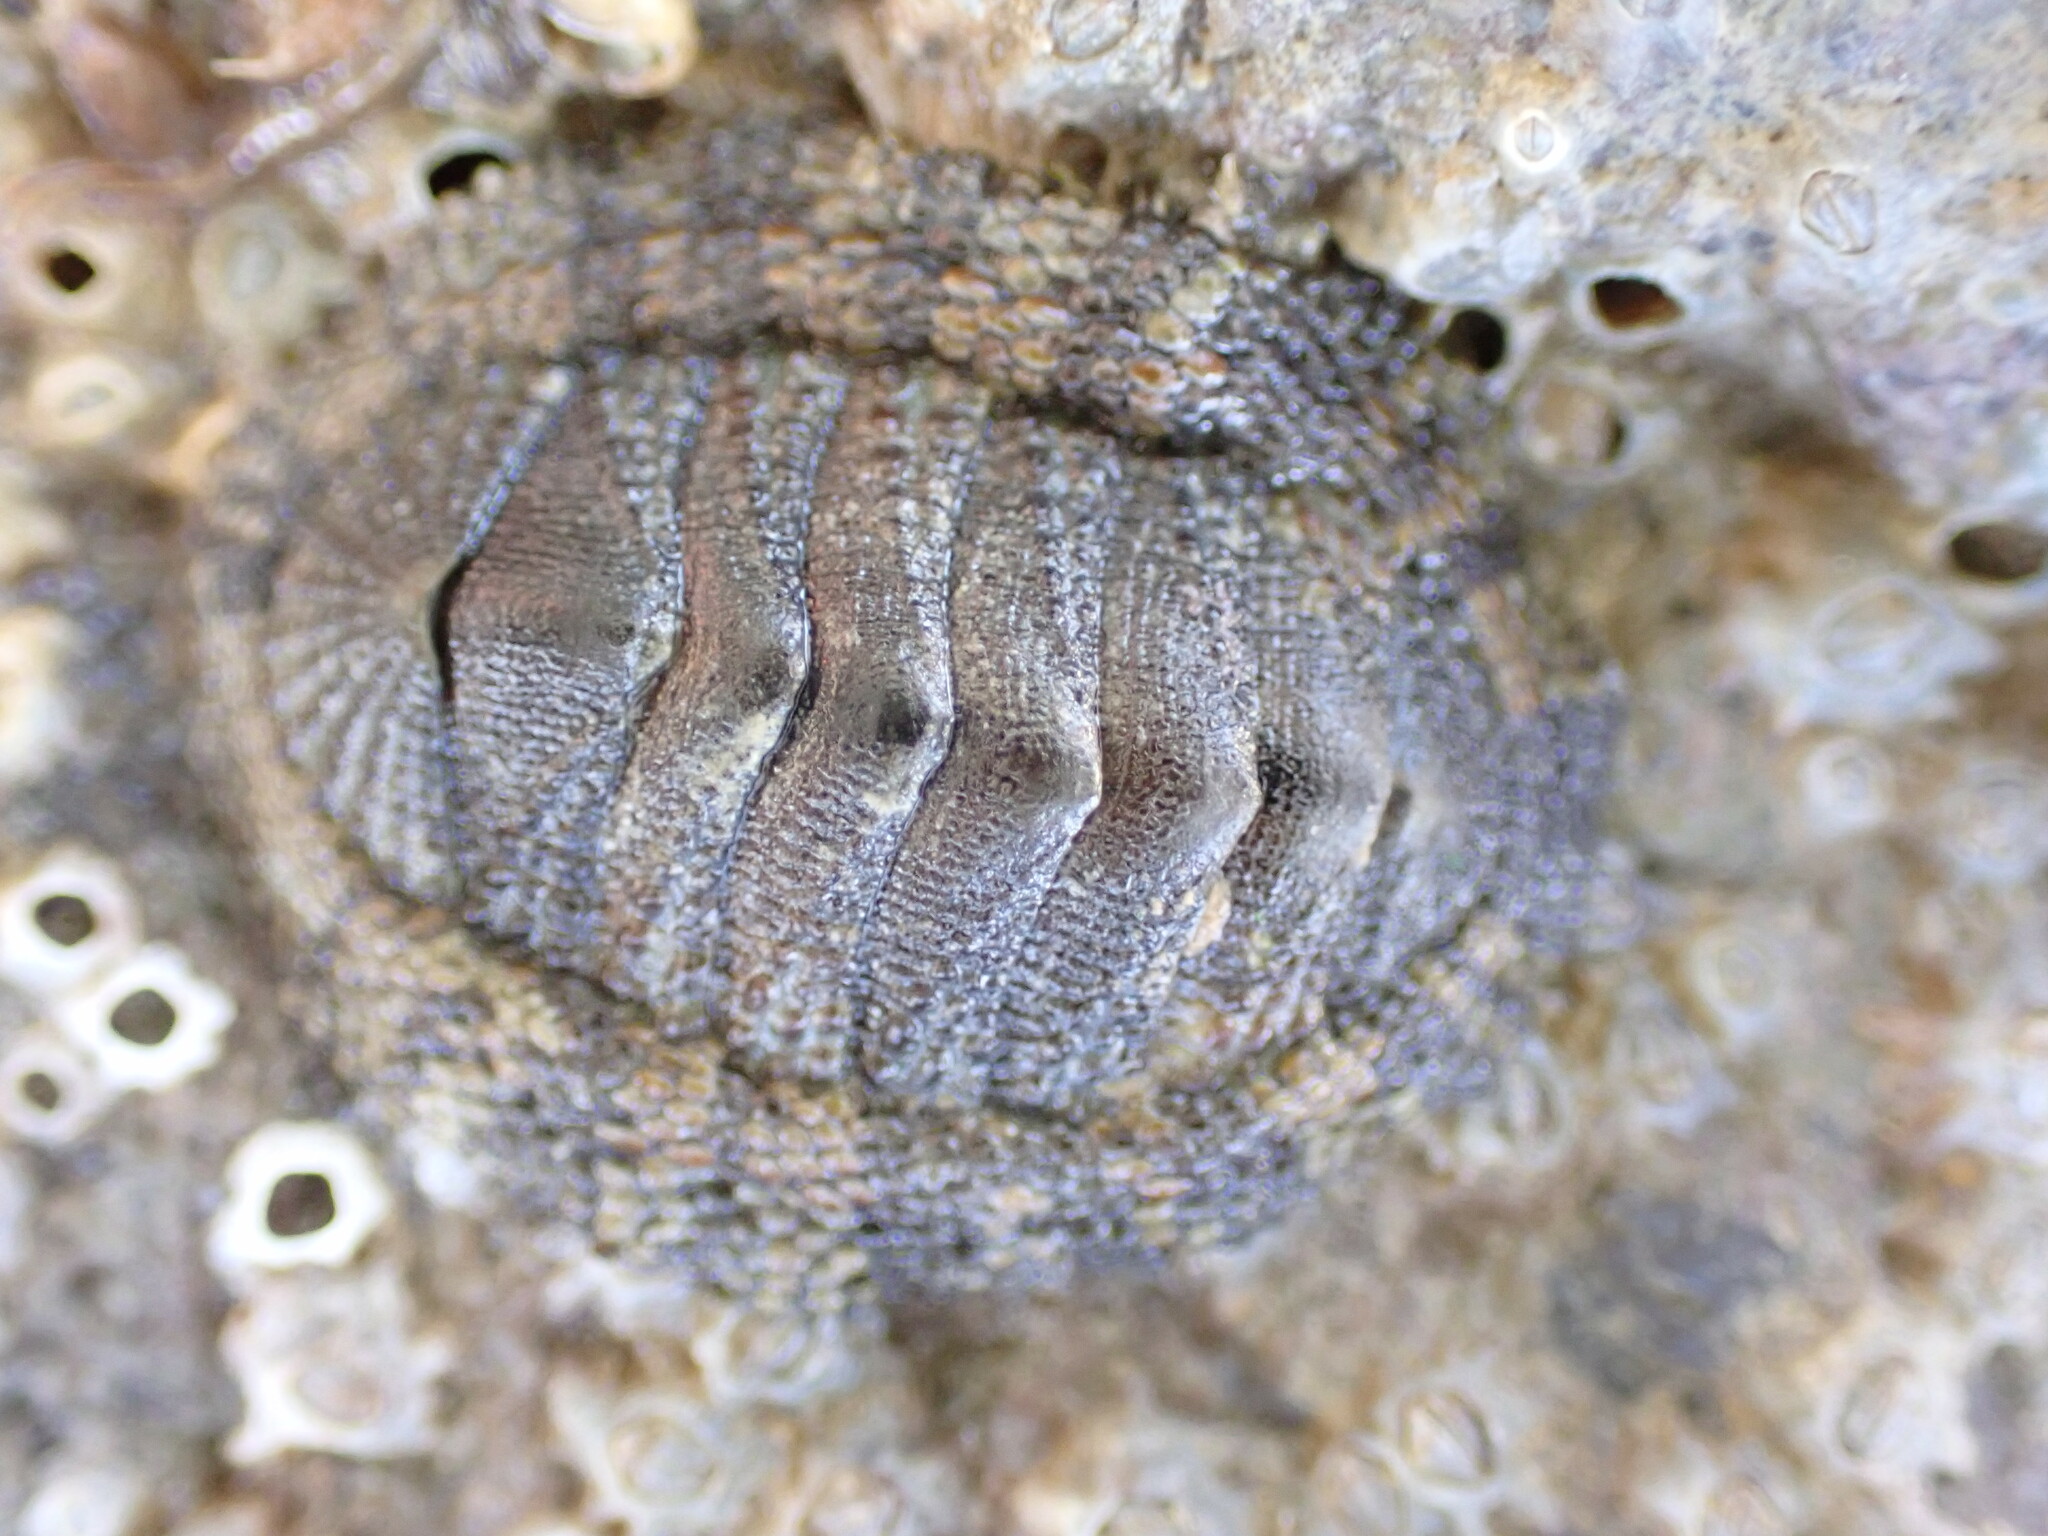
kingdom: Animalia
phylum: Mollusca
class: Polyplacophora
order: Chitonida
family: Chitonidae
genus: Sypharochiton
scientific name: Sypharochiton pelliserpentis
